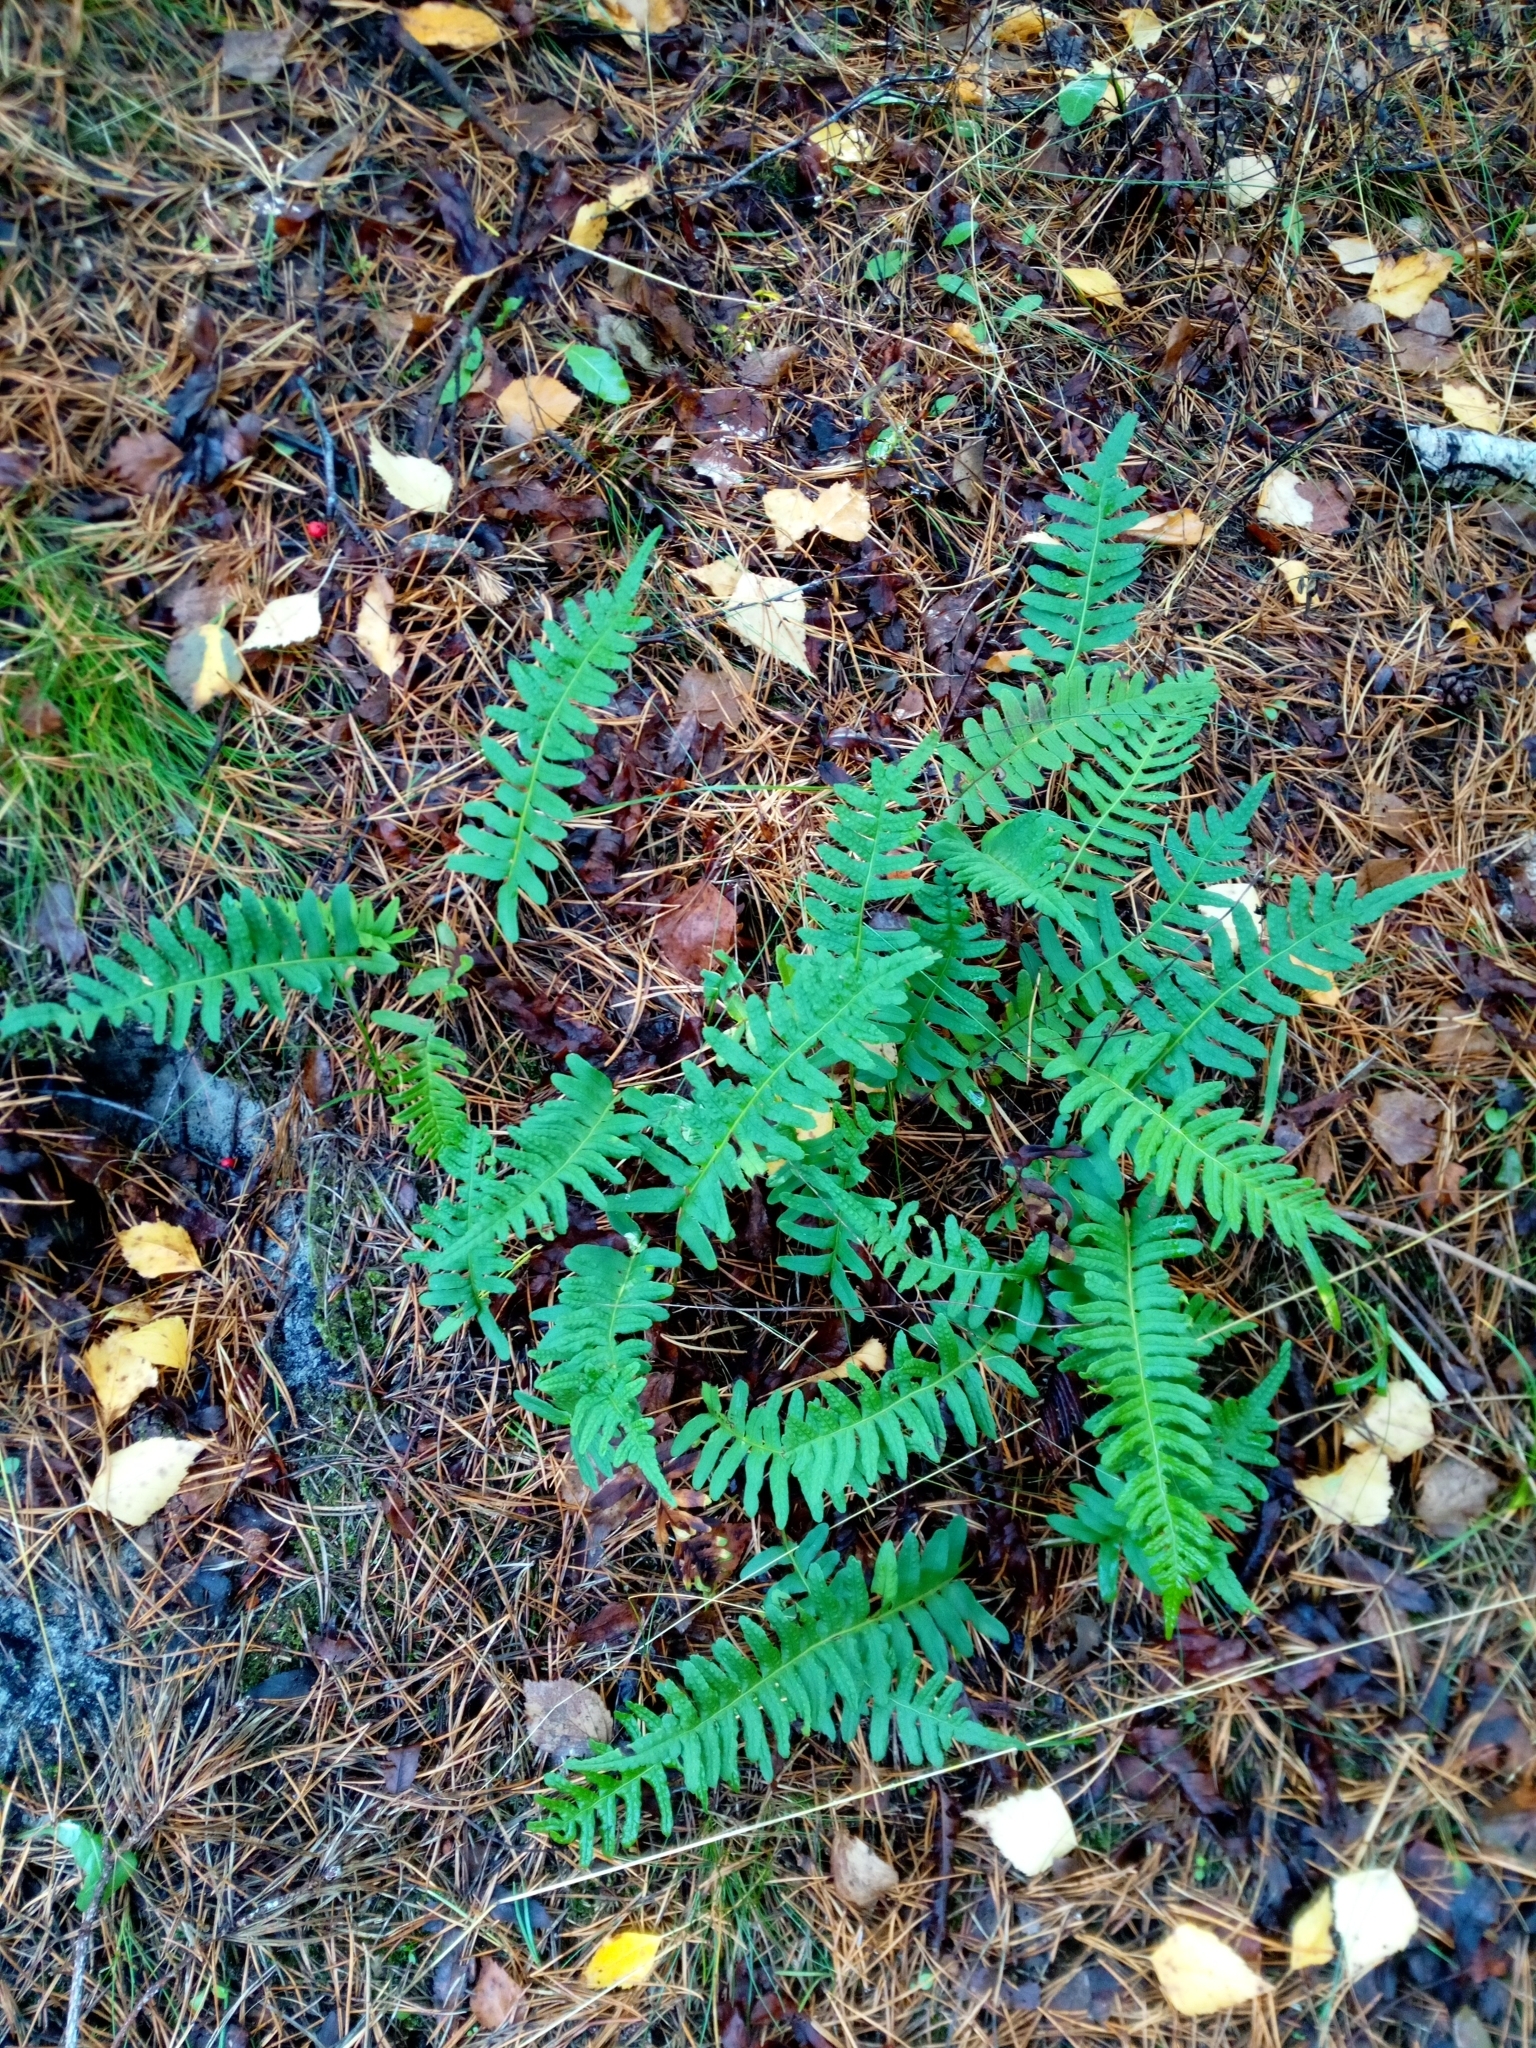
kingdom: Plantae
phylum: Tracheophyta
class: Polypodiopsida
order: Polypodiales
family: Polypodiaceae
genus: Polypodium
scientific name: Polypodium vulgare
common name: Common polypody
